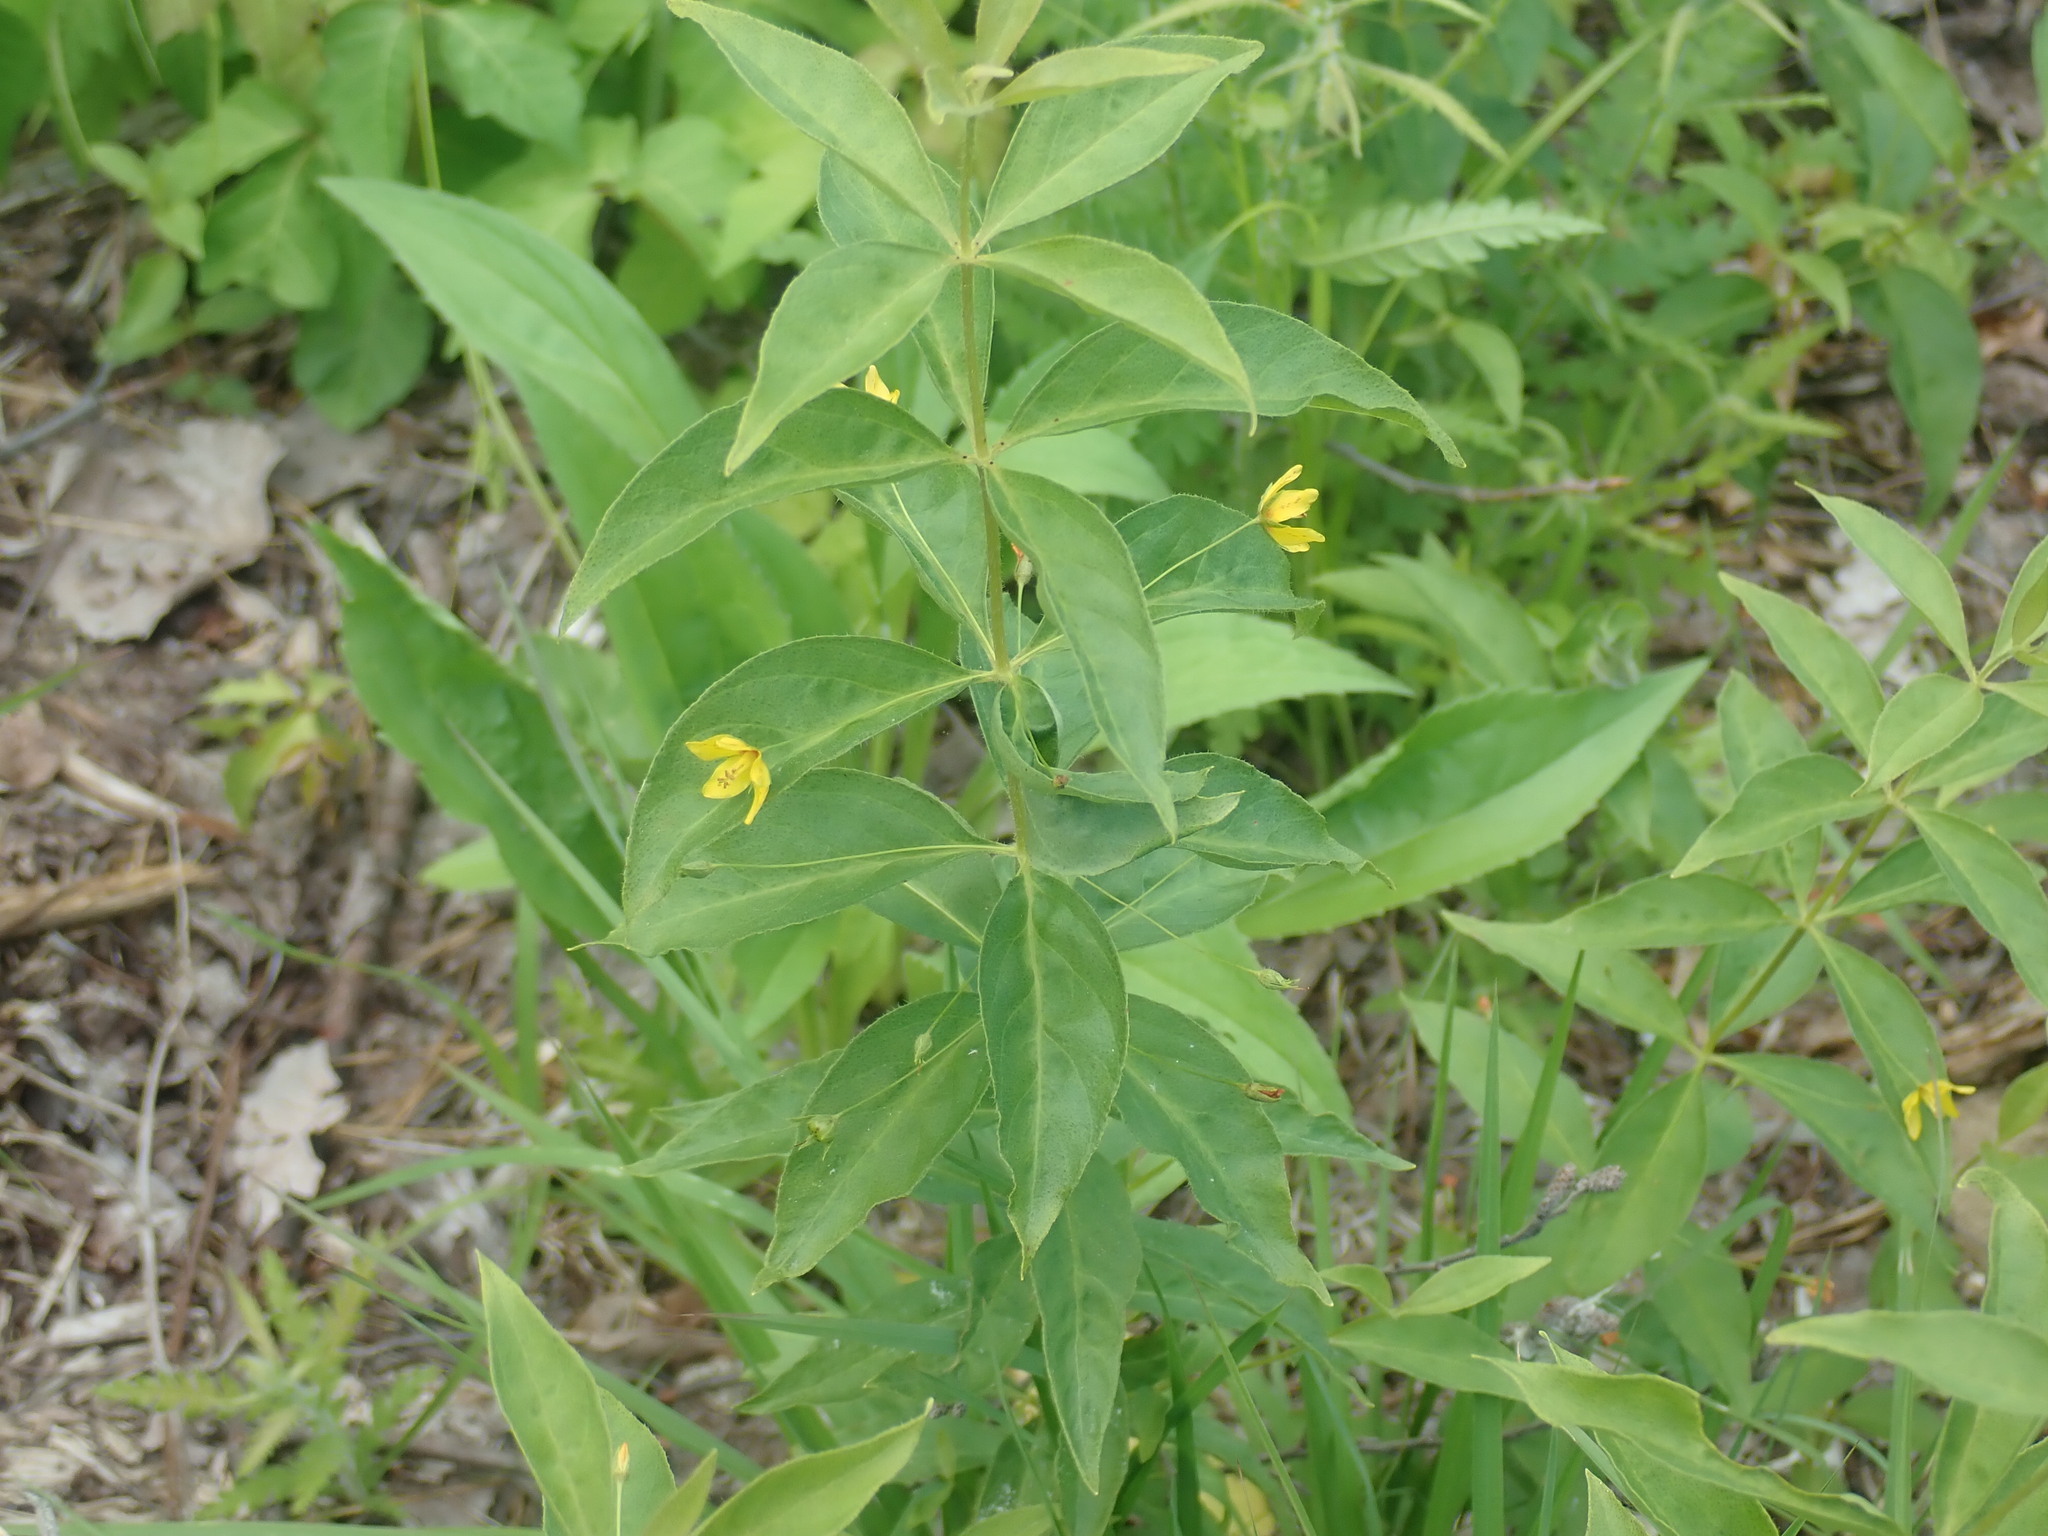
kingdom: Plantae
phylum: Tracheophyta
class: Magnoliopsida
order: Ericales
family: Primulaceae
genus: Lysimachia
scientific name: Lysimachia quadrifolia
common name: Whorled loosestrife
